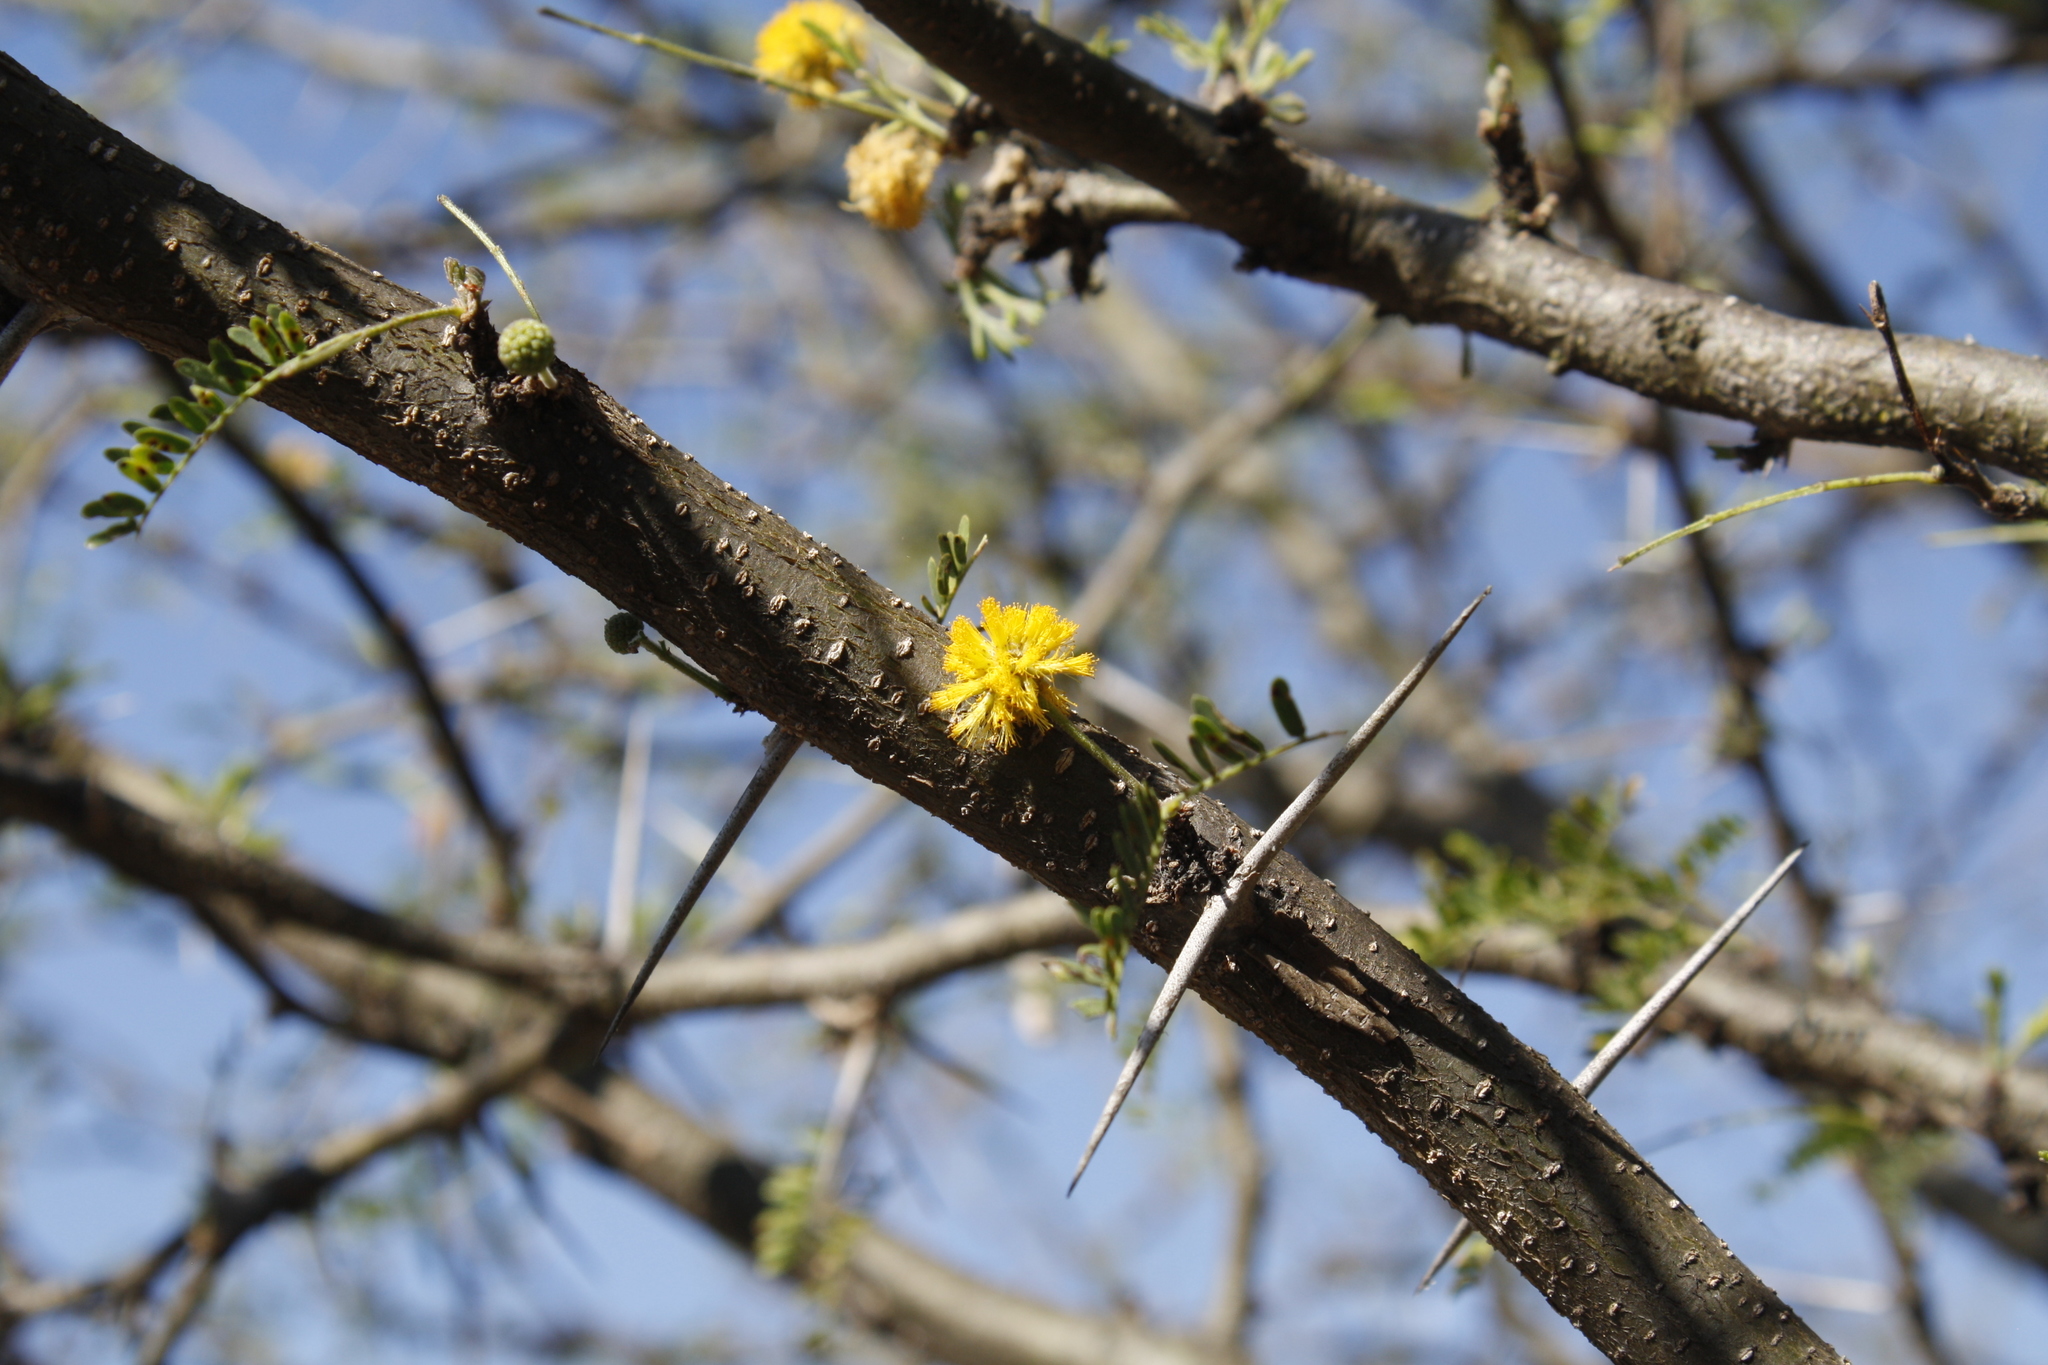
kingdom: Plantae
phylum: Tracheophyta
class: Magnoliopsida
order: Fabales
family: Fabaceae
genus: Vachellia
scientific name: Vachellia farnesiana
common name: Sweet acacia
